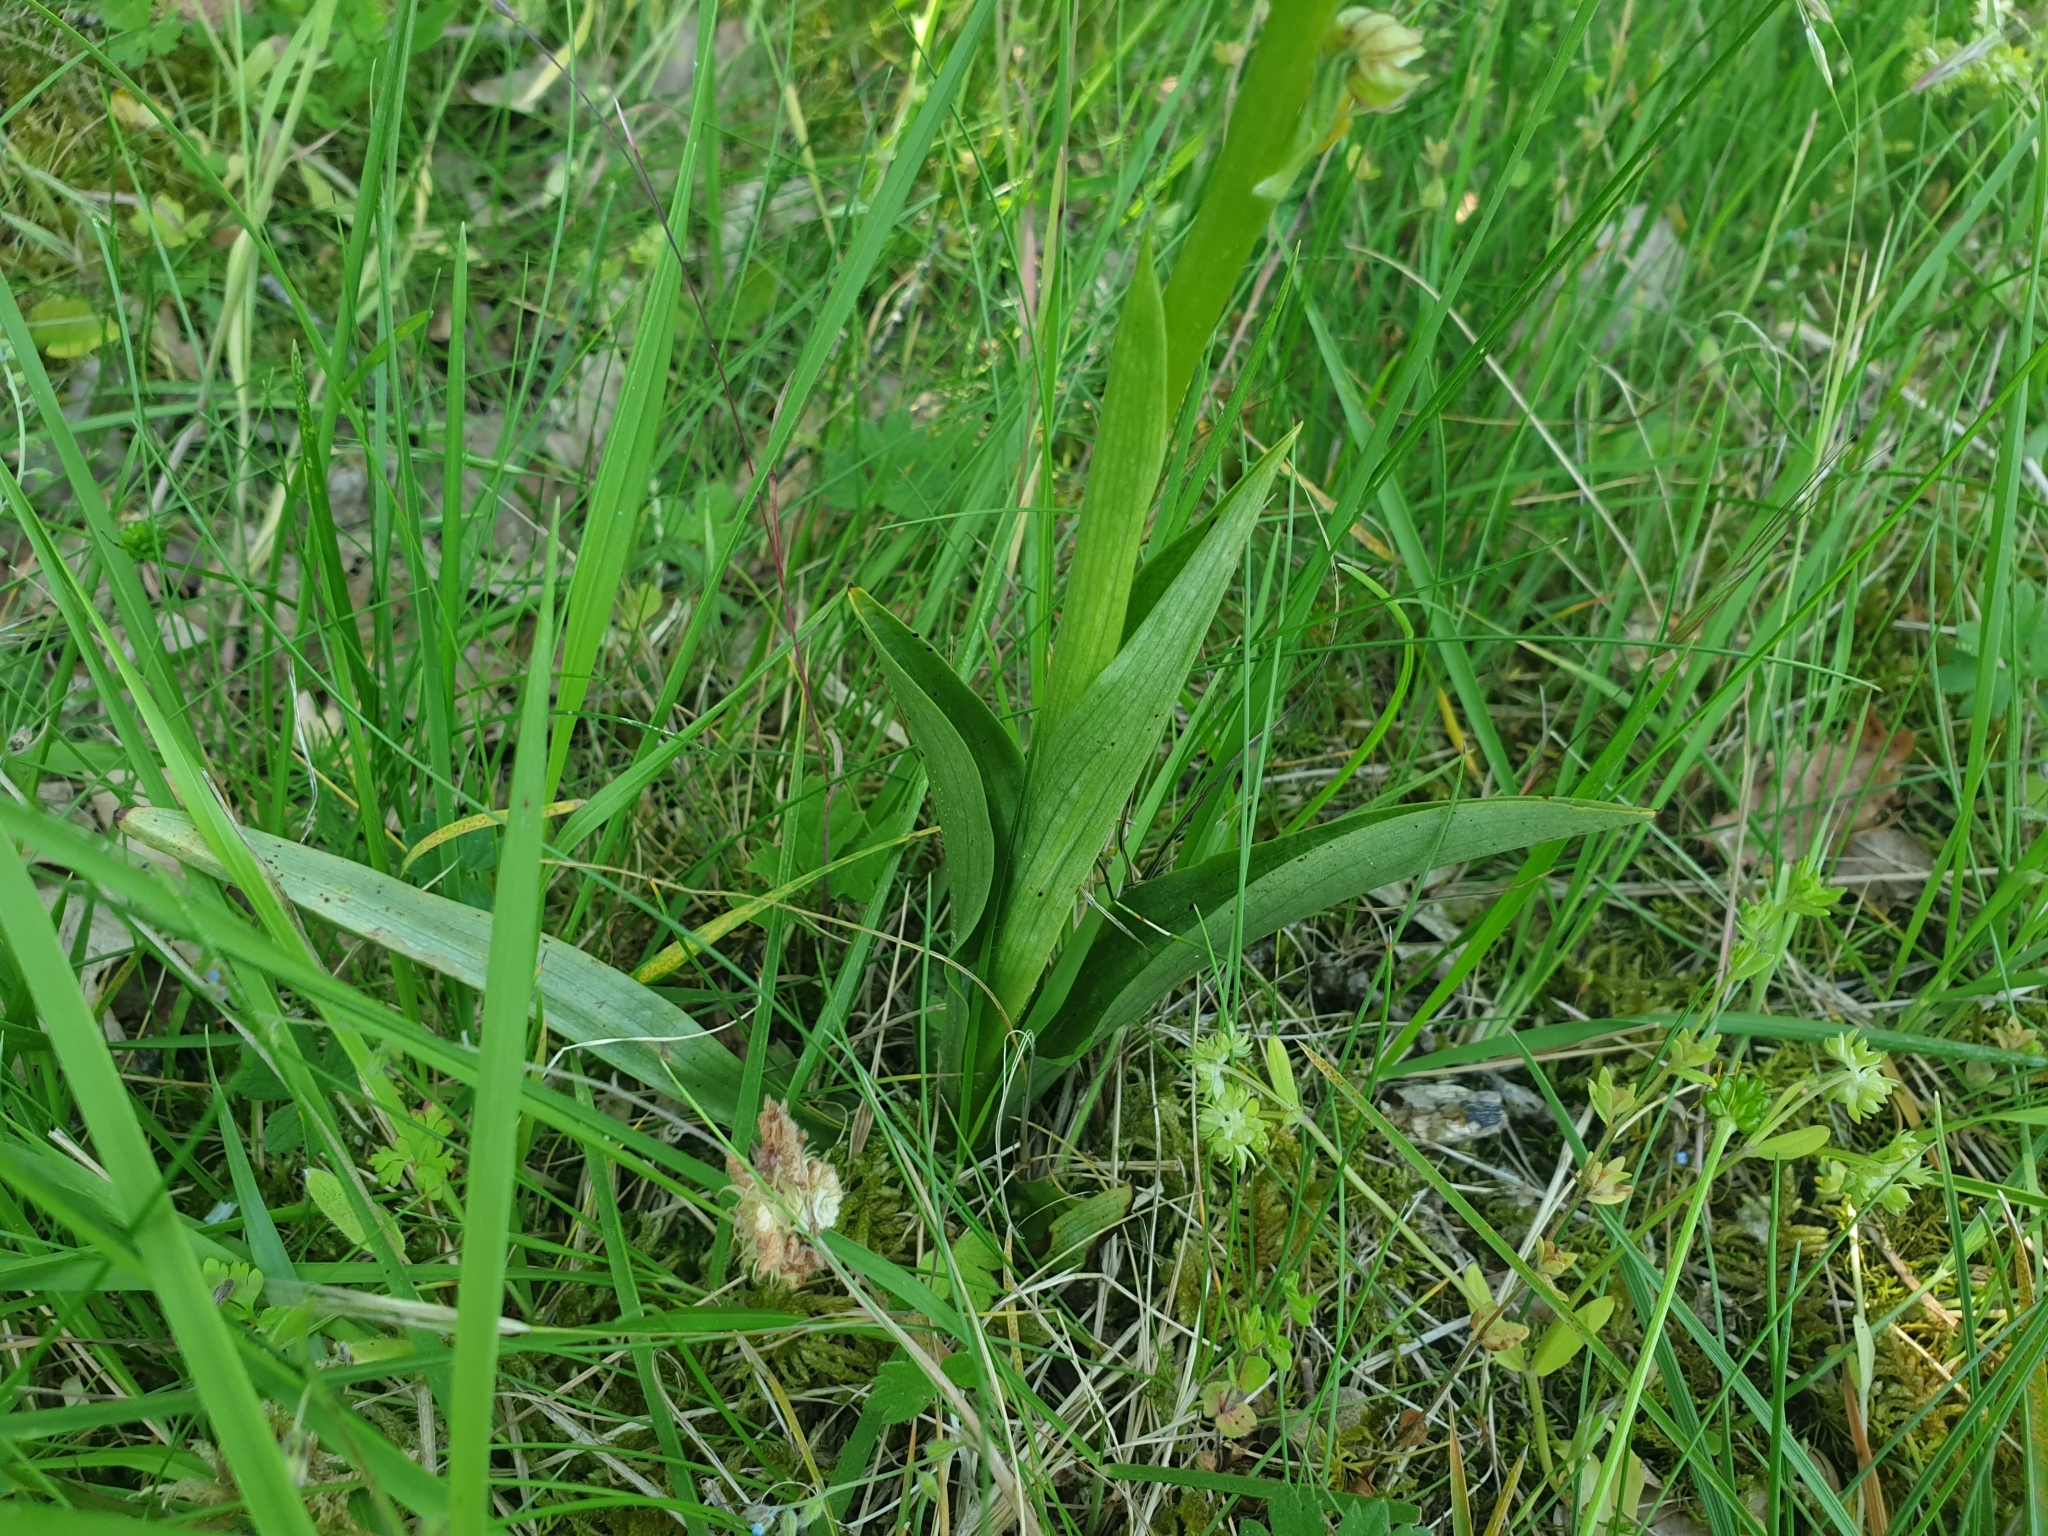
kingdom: Plantae
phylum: Tracheophyta
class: Liliopsida
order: Asparagales
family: Orchidaceae
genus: Orchis
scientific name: Orchis anthropophora
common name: Man orchid
